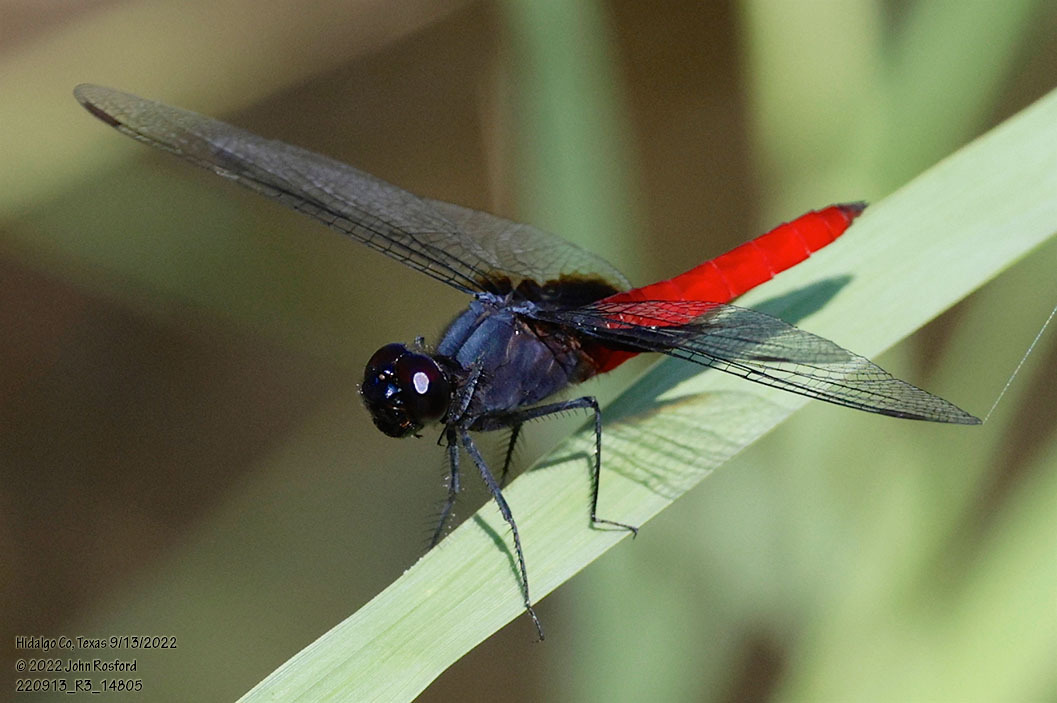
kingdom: Animalia
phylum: Arthropoda
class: Insecta
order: Odonata
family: Libellulidae
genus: Planiplax
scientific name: Planiplax sanguiniventris
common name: Mexican scarlet-tail
